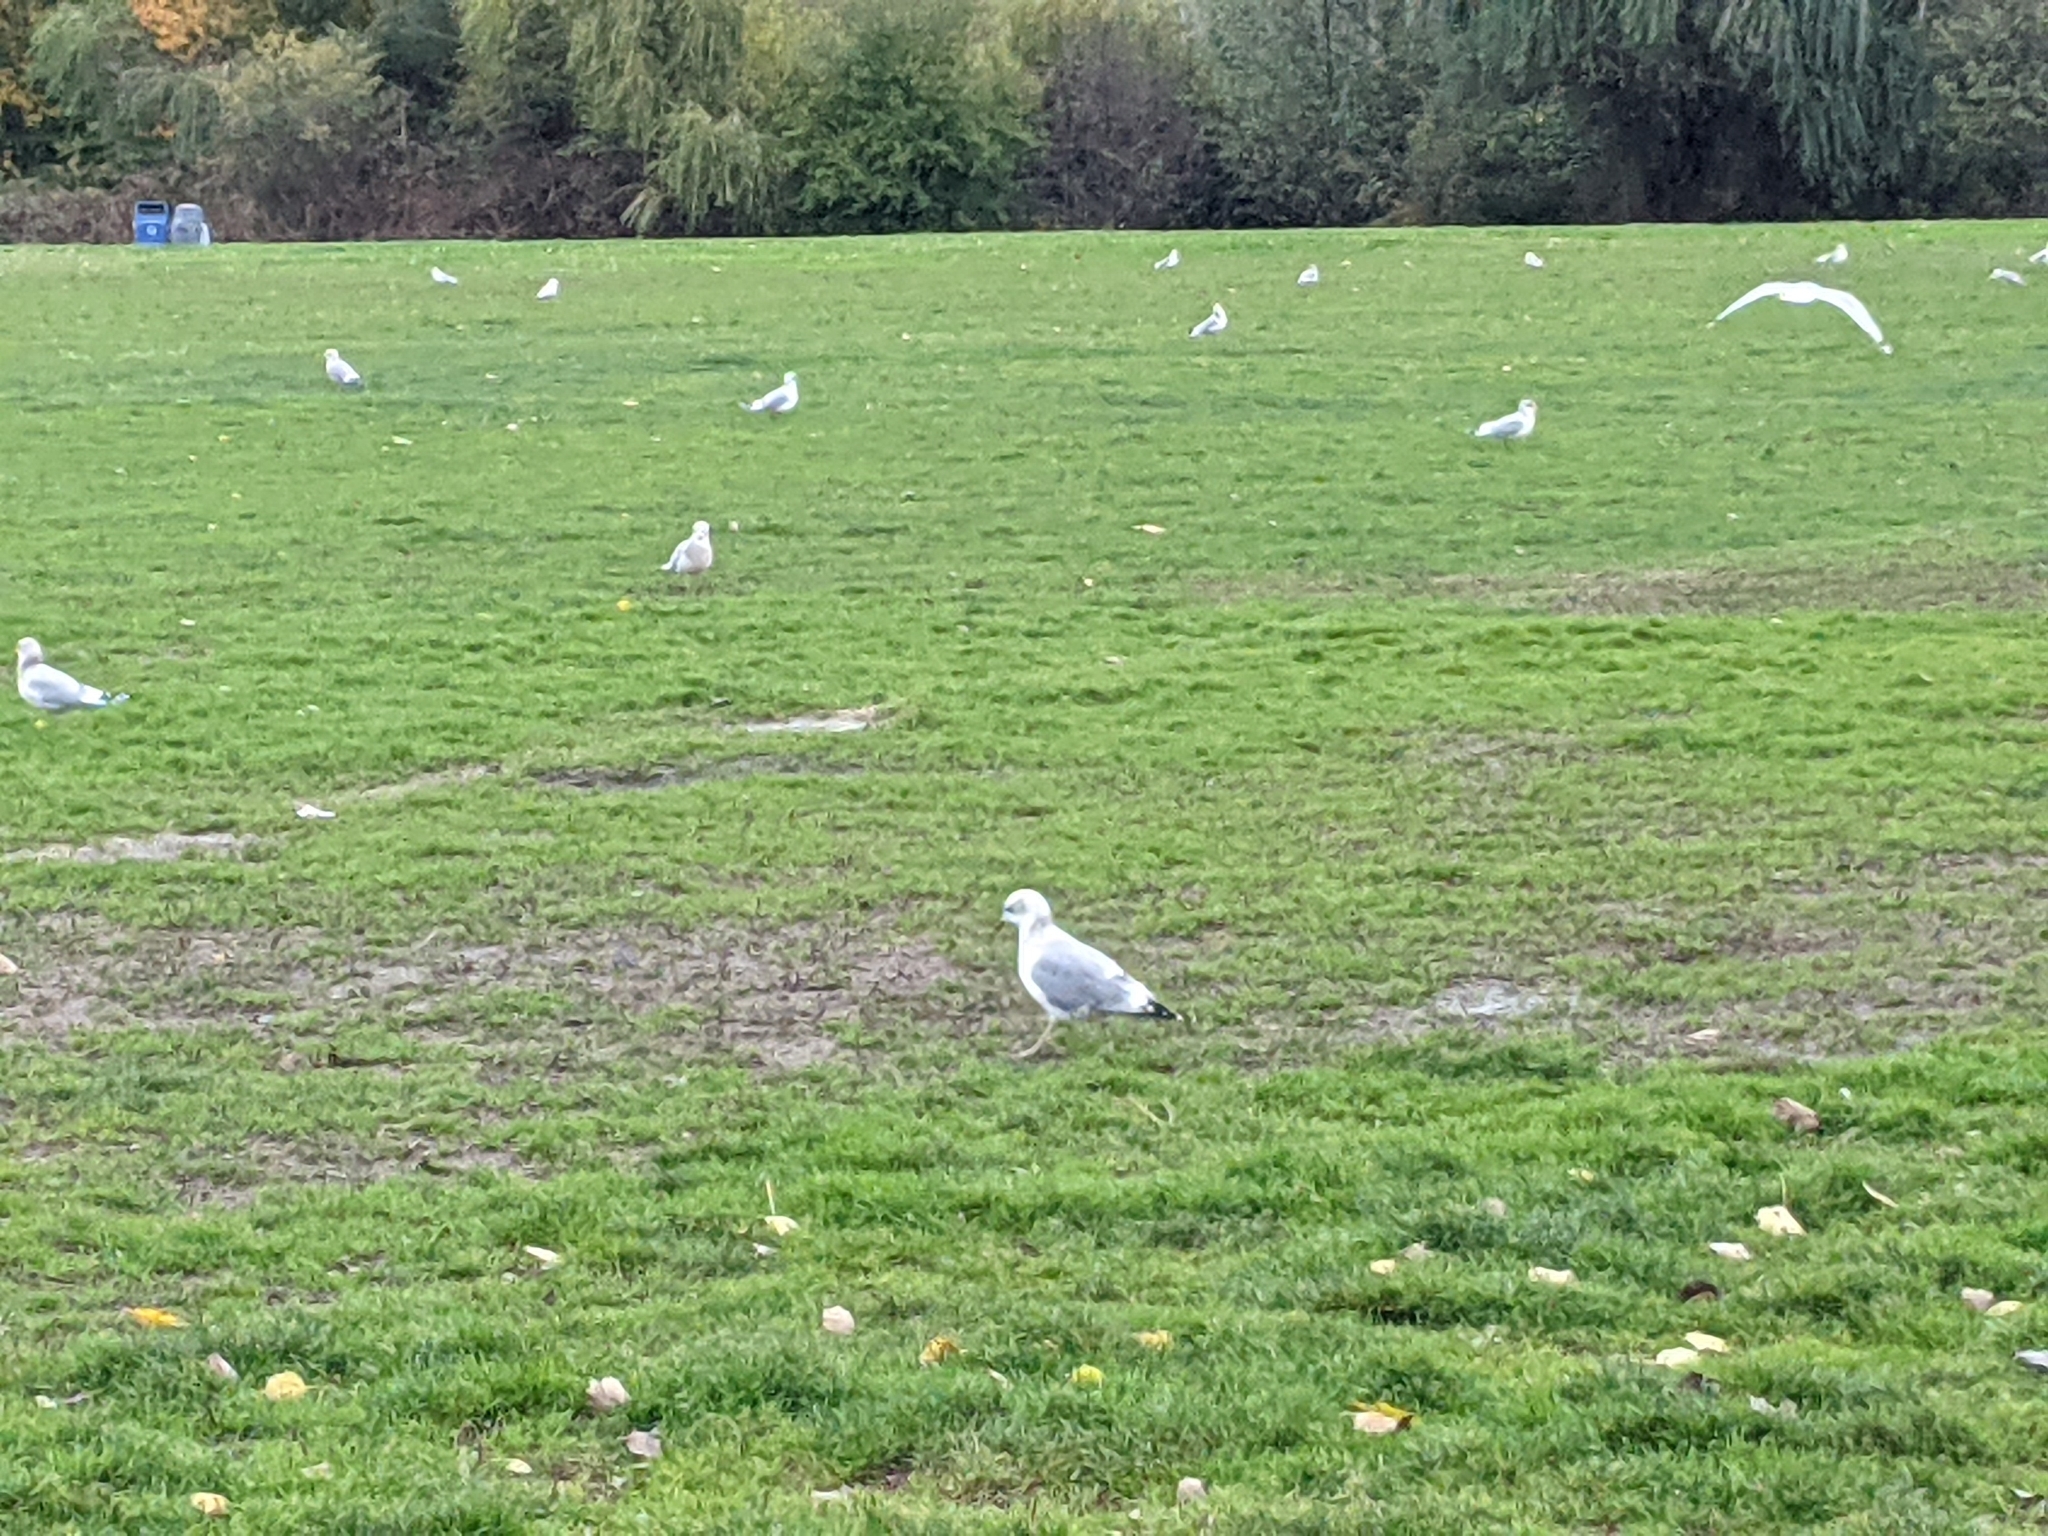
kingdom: Animalia
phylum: Chordata
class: Aves
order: Charadriiformes
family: Laridae
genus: Larus
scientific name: Larus brachyrhynchus
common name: Short-billed gull
